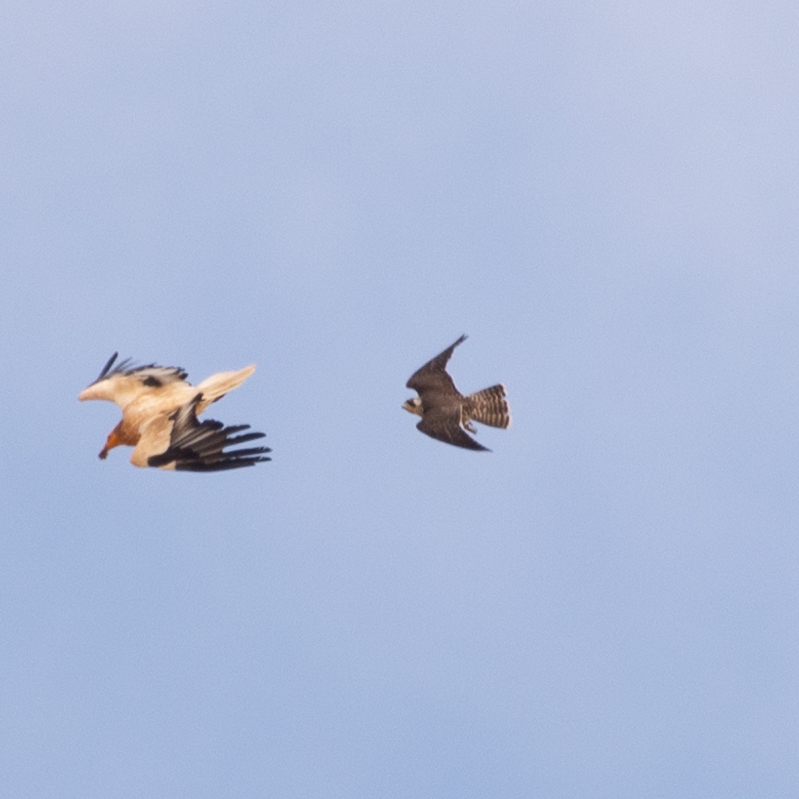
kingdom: Animalia
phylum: Chordata
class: Aves
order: Falconiformes
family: Falconidae
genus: Falco
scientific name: Falco peregrinus
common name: Peregrine falcon
